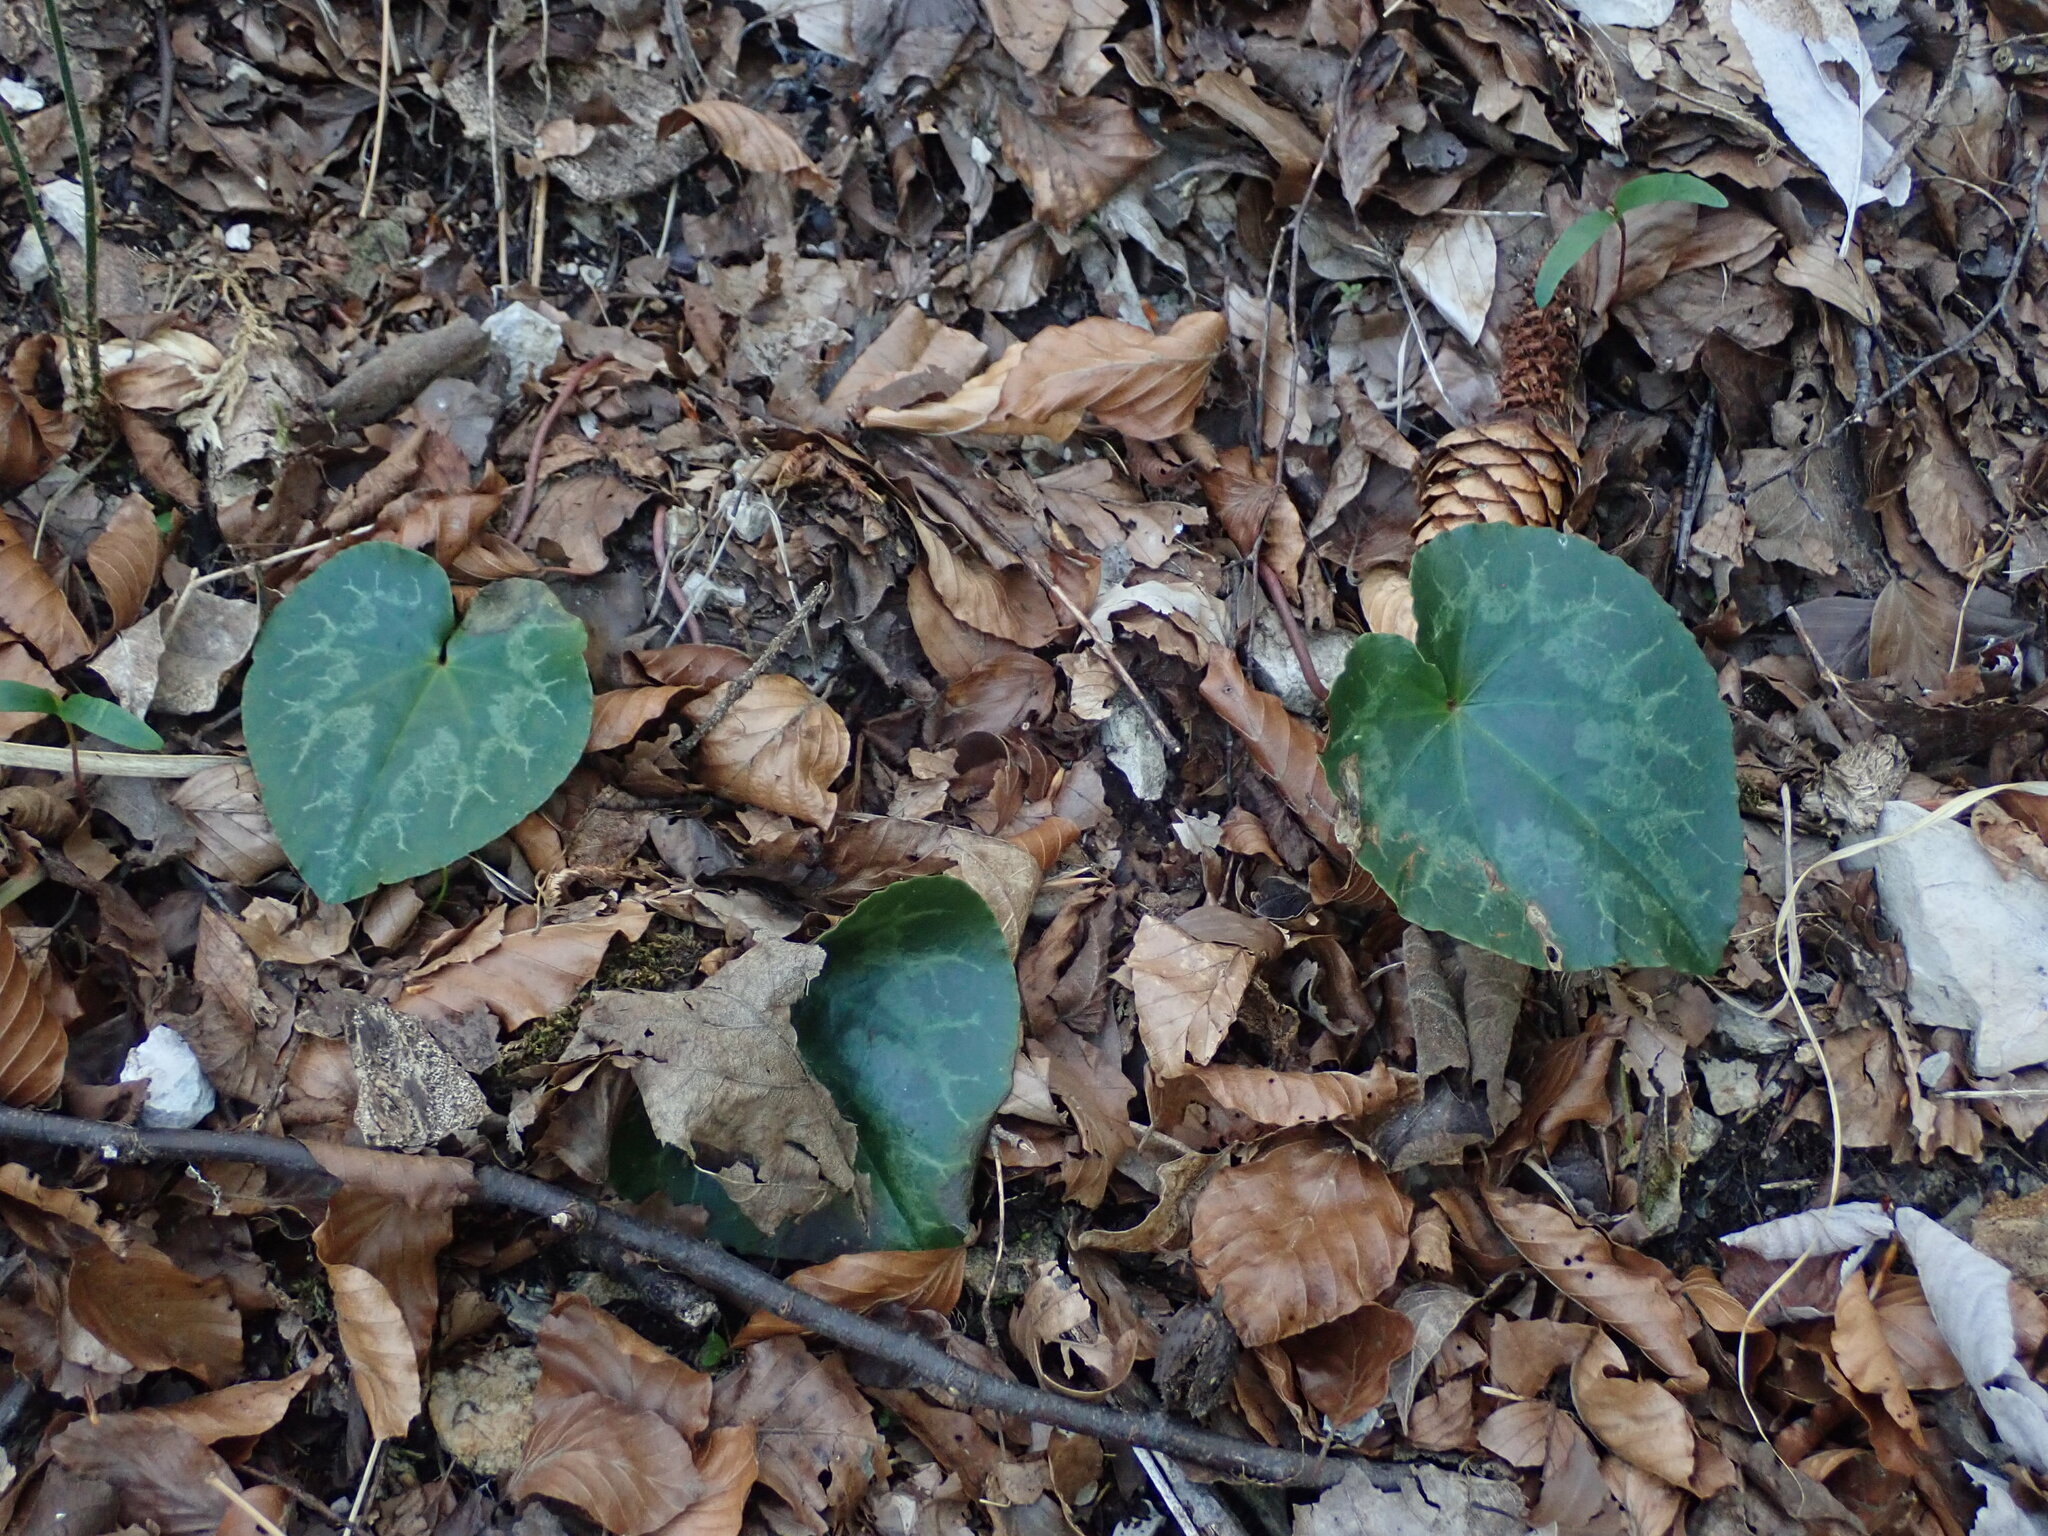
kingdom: Plantae
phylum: Tracheophyta
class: Magnoliopsida
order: Ericales
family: Primulaceae
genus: Cyclamen
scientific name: Cyclamen purpurascens
